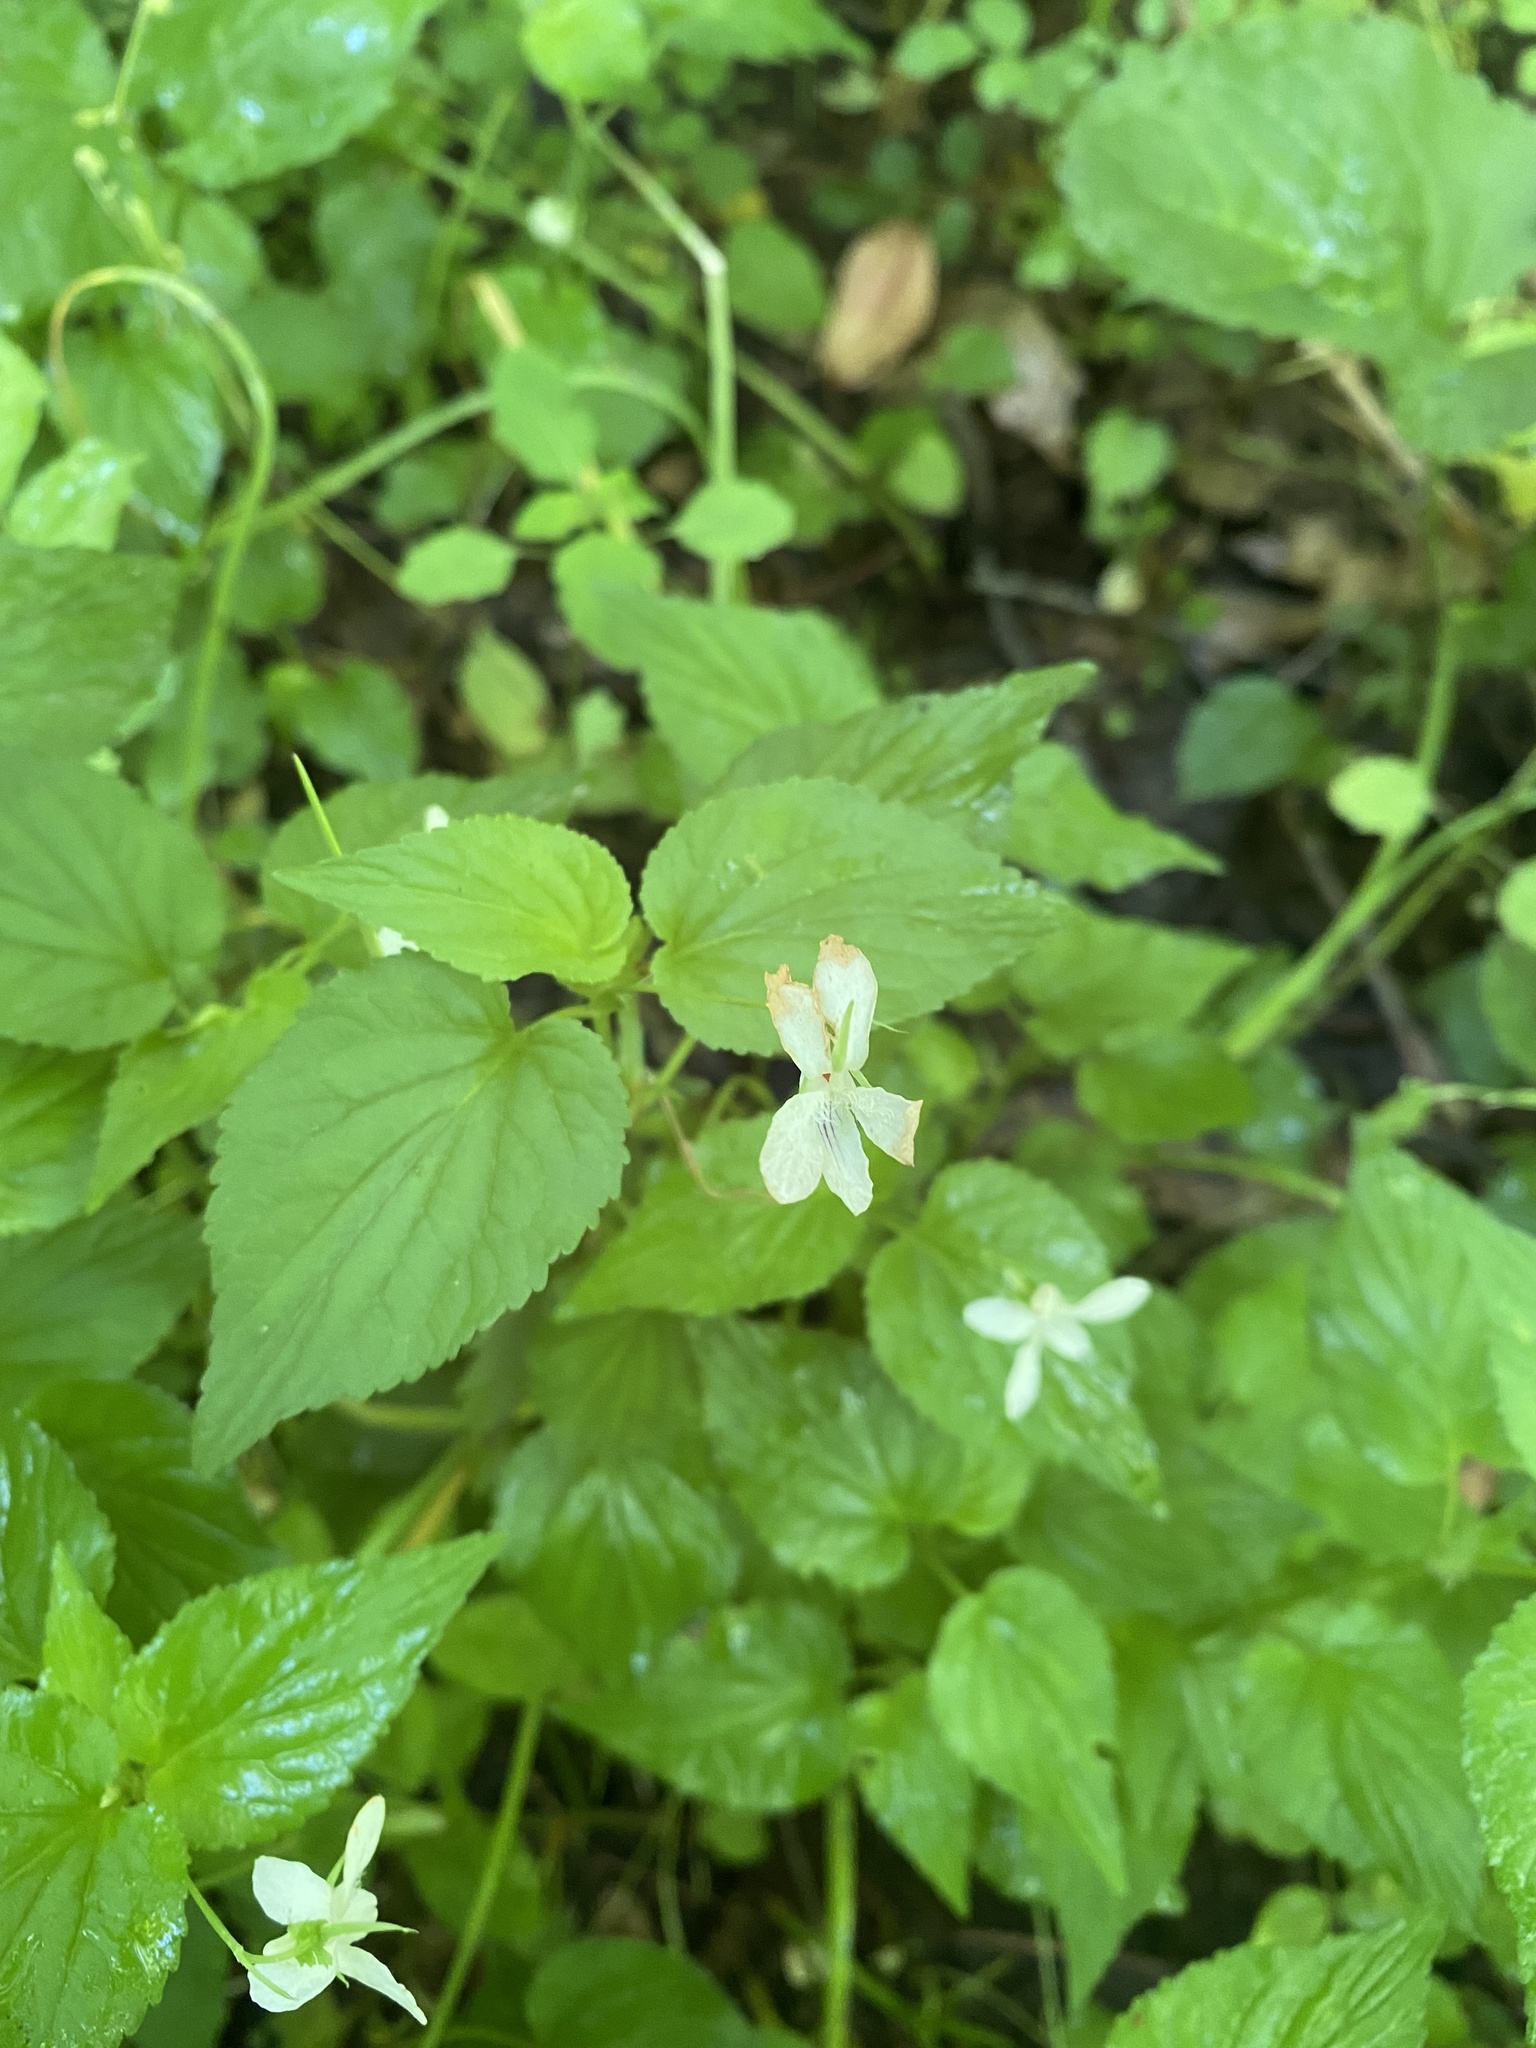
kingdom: Plantae
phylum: Tracheophyta
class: Magnoliopsida
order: Malpighiales
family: Violaceae
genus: Viola
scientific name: Viola striata
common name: Cream violet
